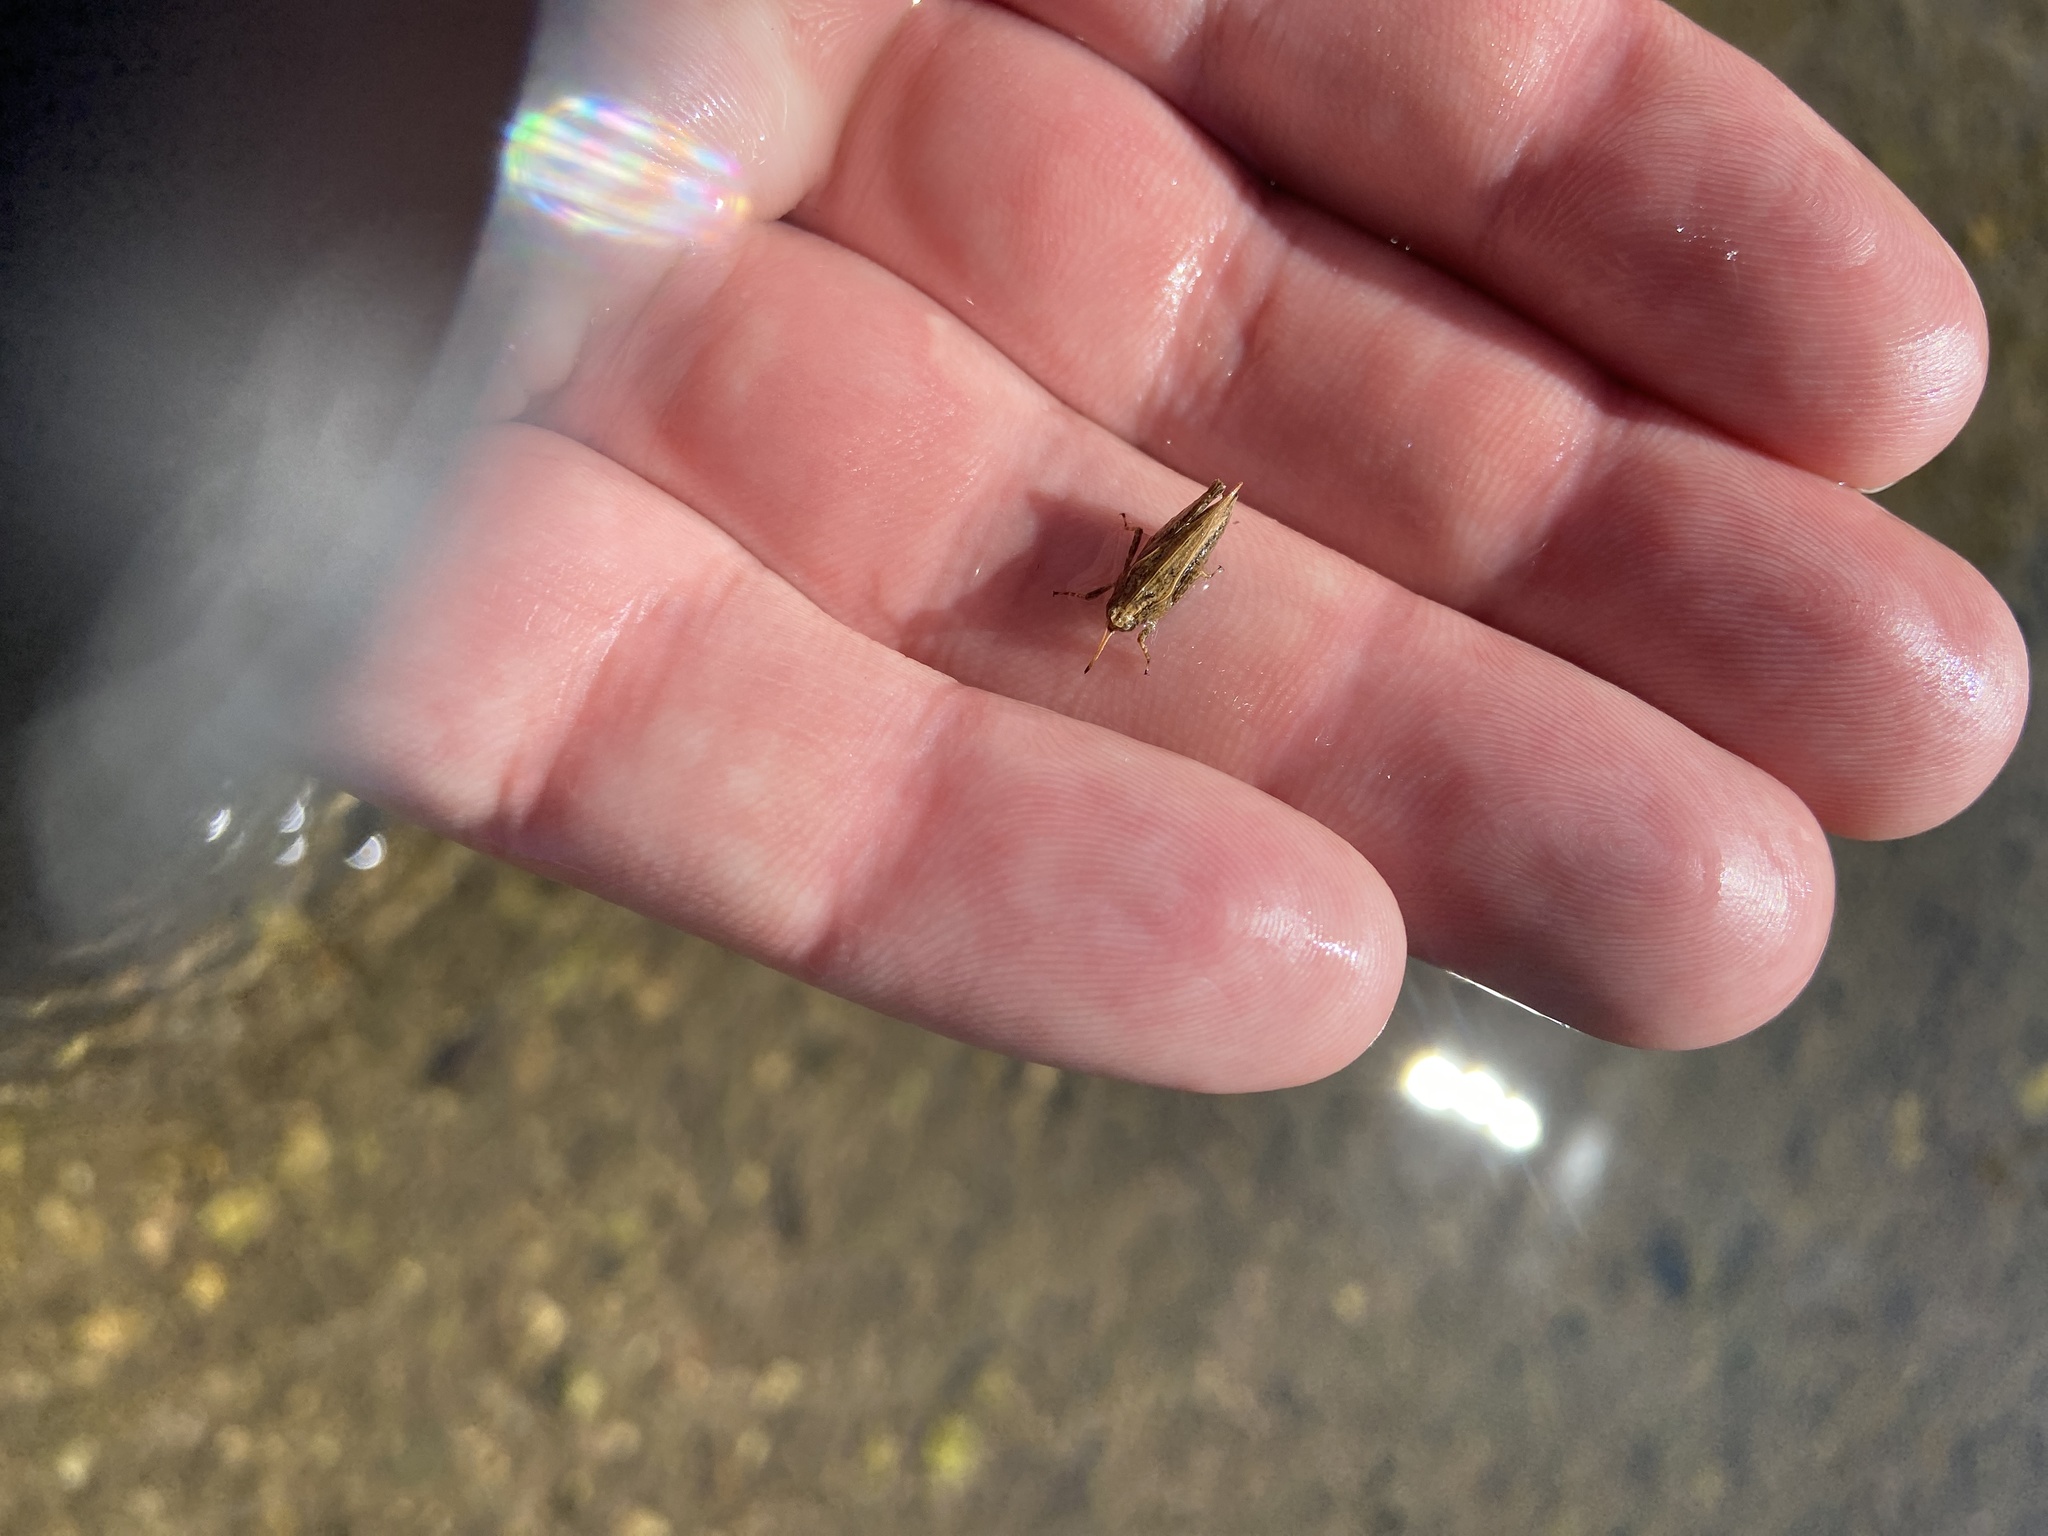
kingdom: Animalia
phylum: Arthropoda
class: Insecta
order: Orthoptera
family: Tetrigidae
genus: Tetrix
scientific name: Tetrix subulata
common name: Slender ground-hopper
